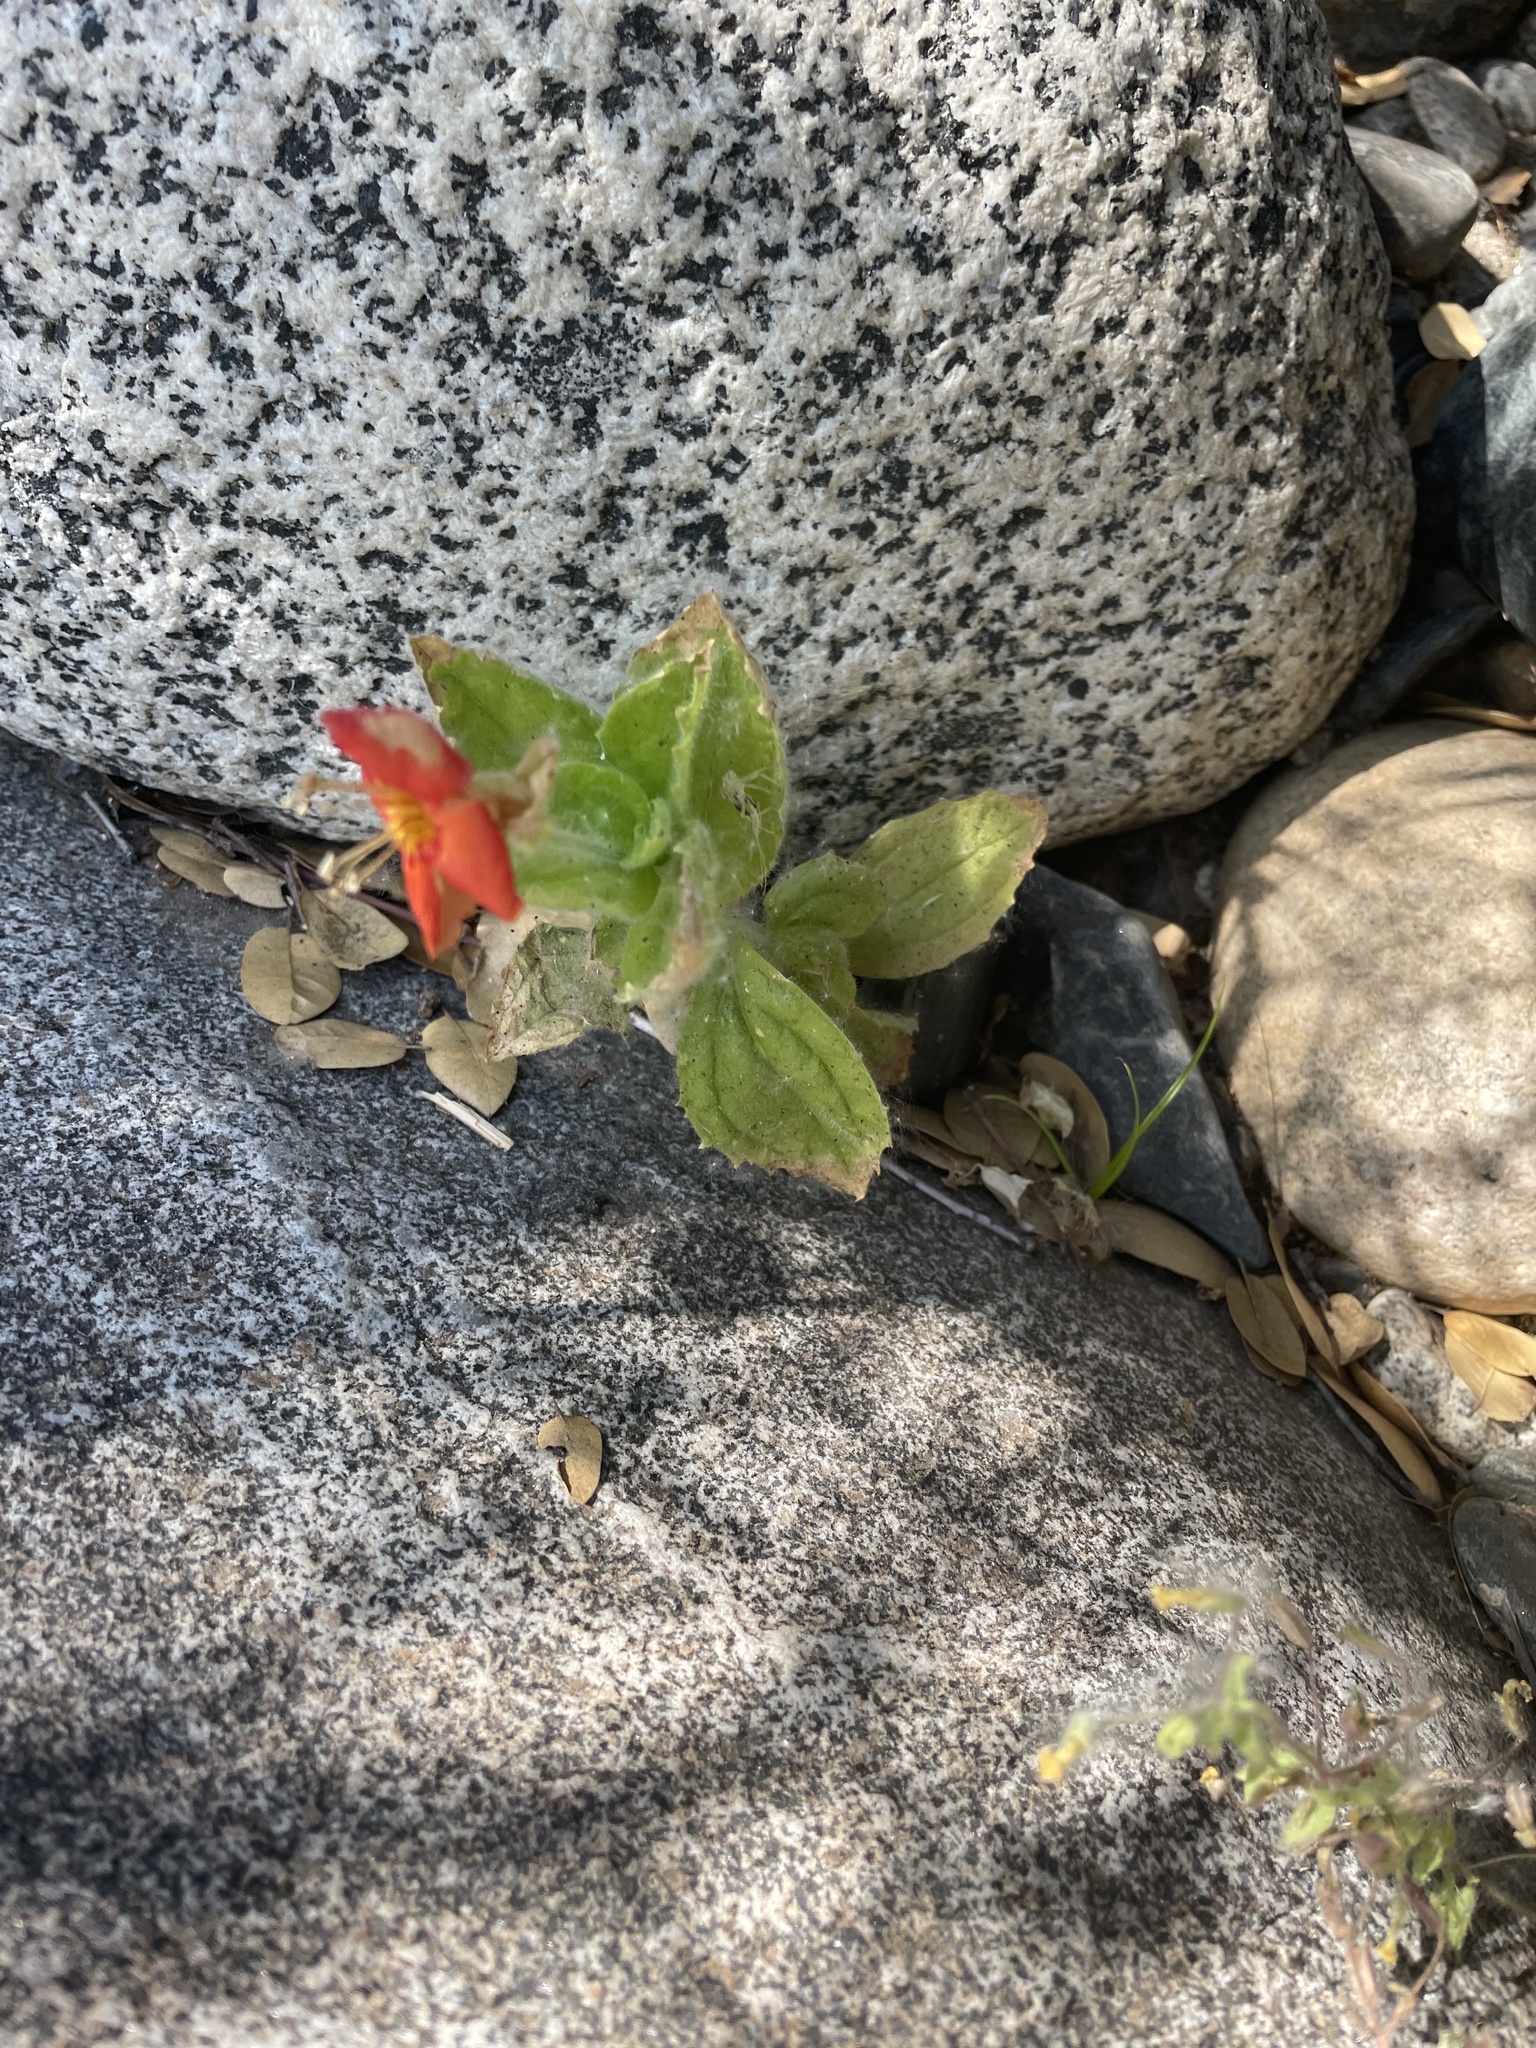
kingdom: Plantae
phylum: Tracheophyta
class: Magnoliopsida
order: Lamiales
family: Phrymaceae
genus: Erythranthe
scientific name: Erythranthe cardinalis
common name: Scarlet monkey-flower
